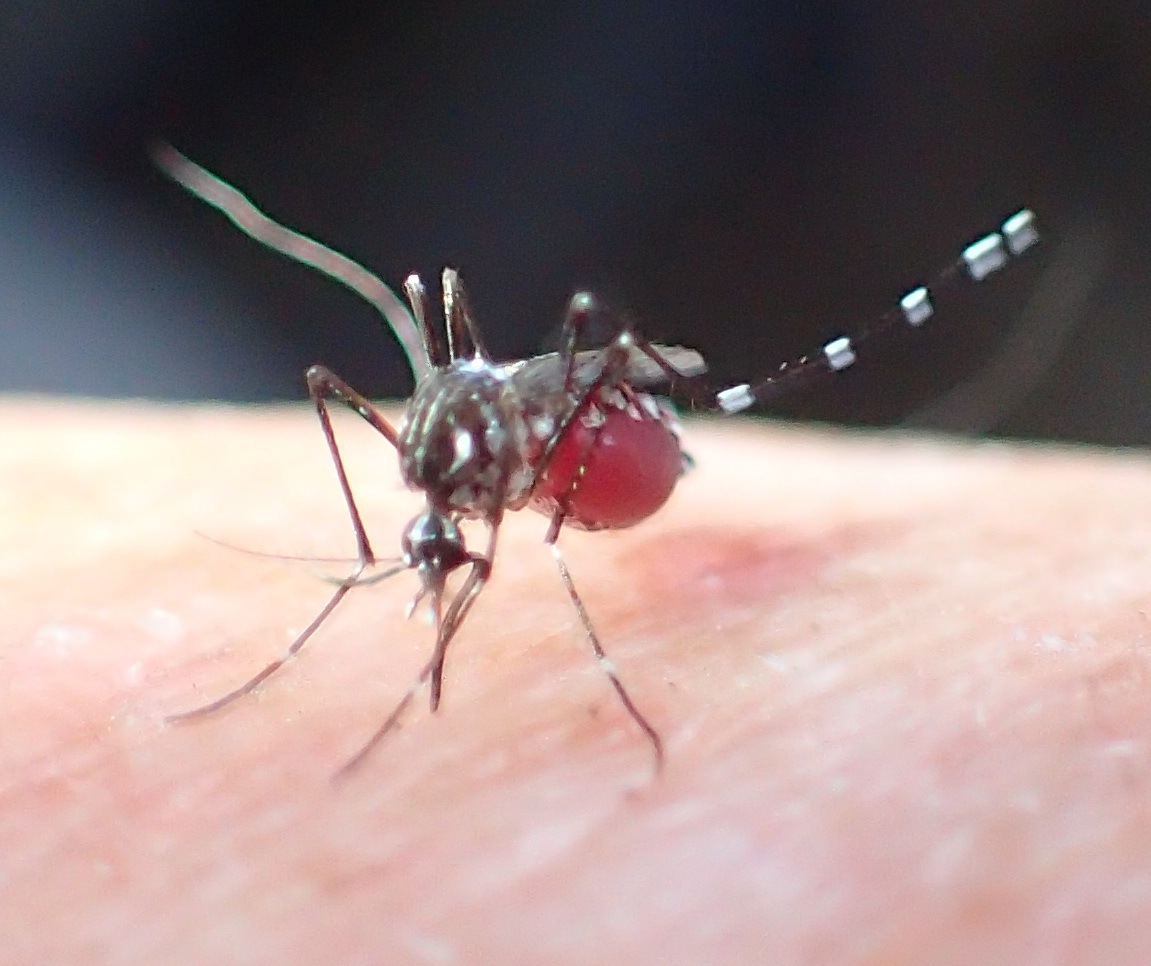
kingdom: Animalia
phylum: Arthropoda
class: Insecta
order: Diptera
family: Culicidae
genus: Aedes
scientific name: Aedes aegypti
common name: Yellow fever mosquito
